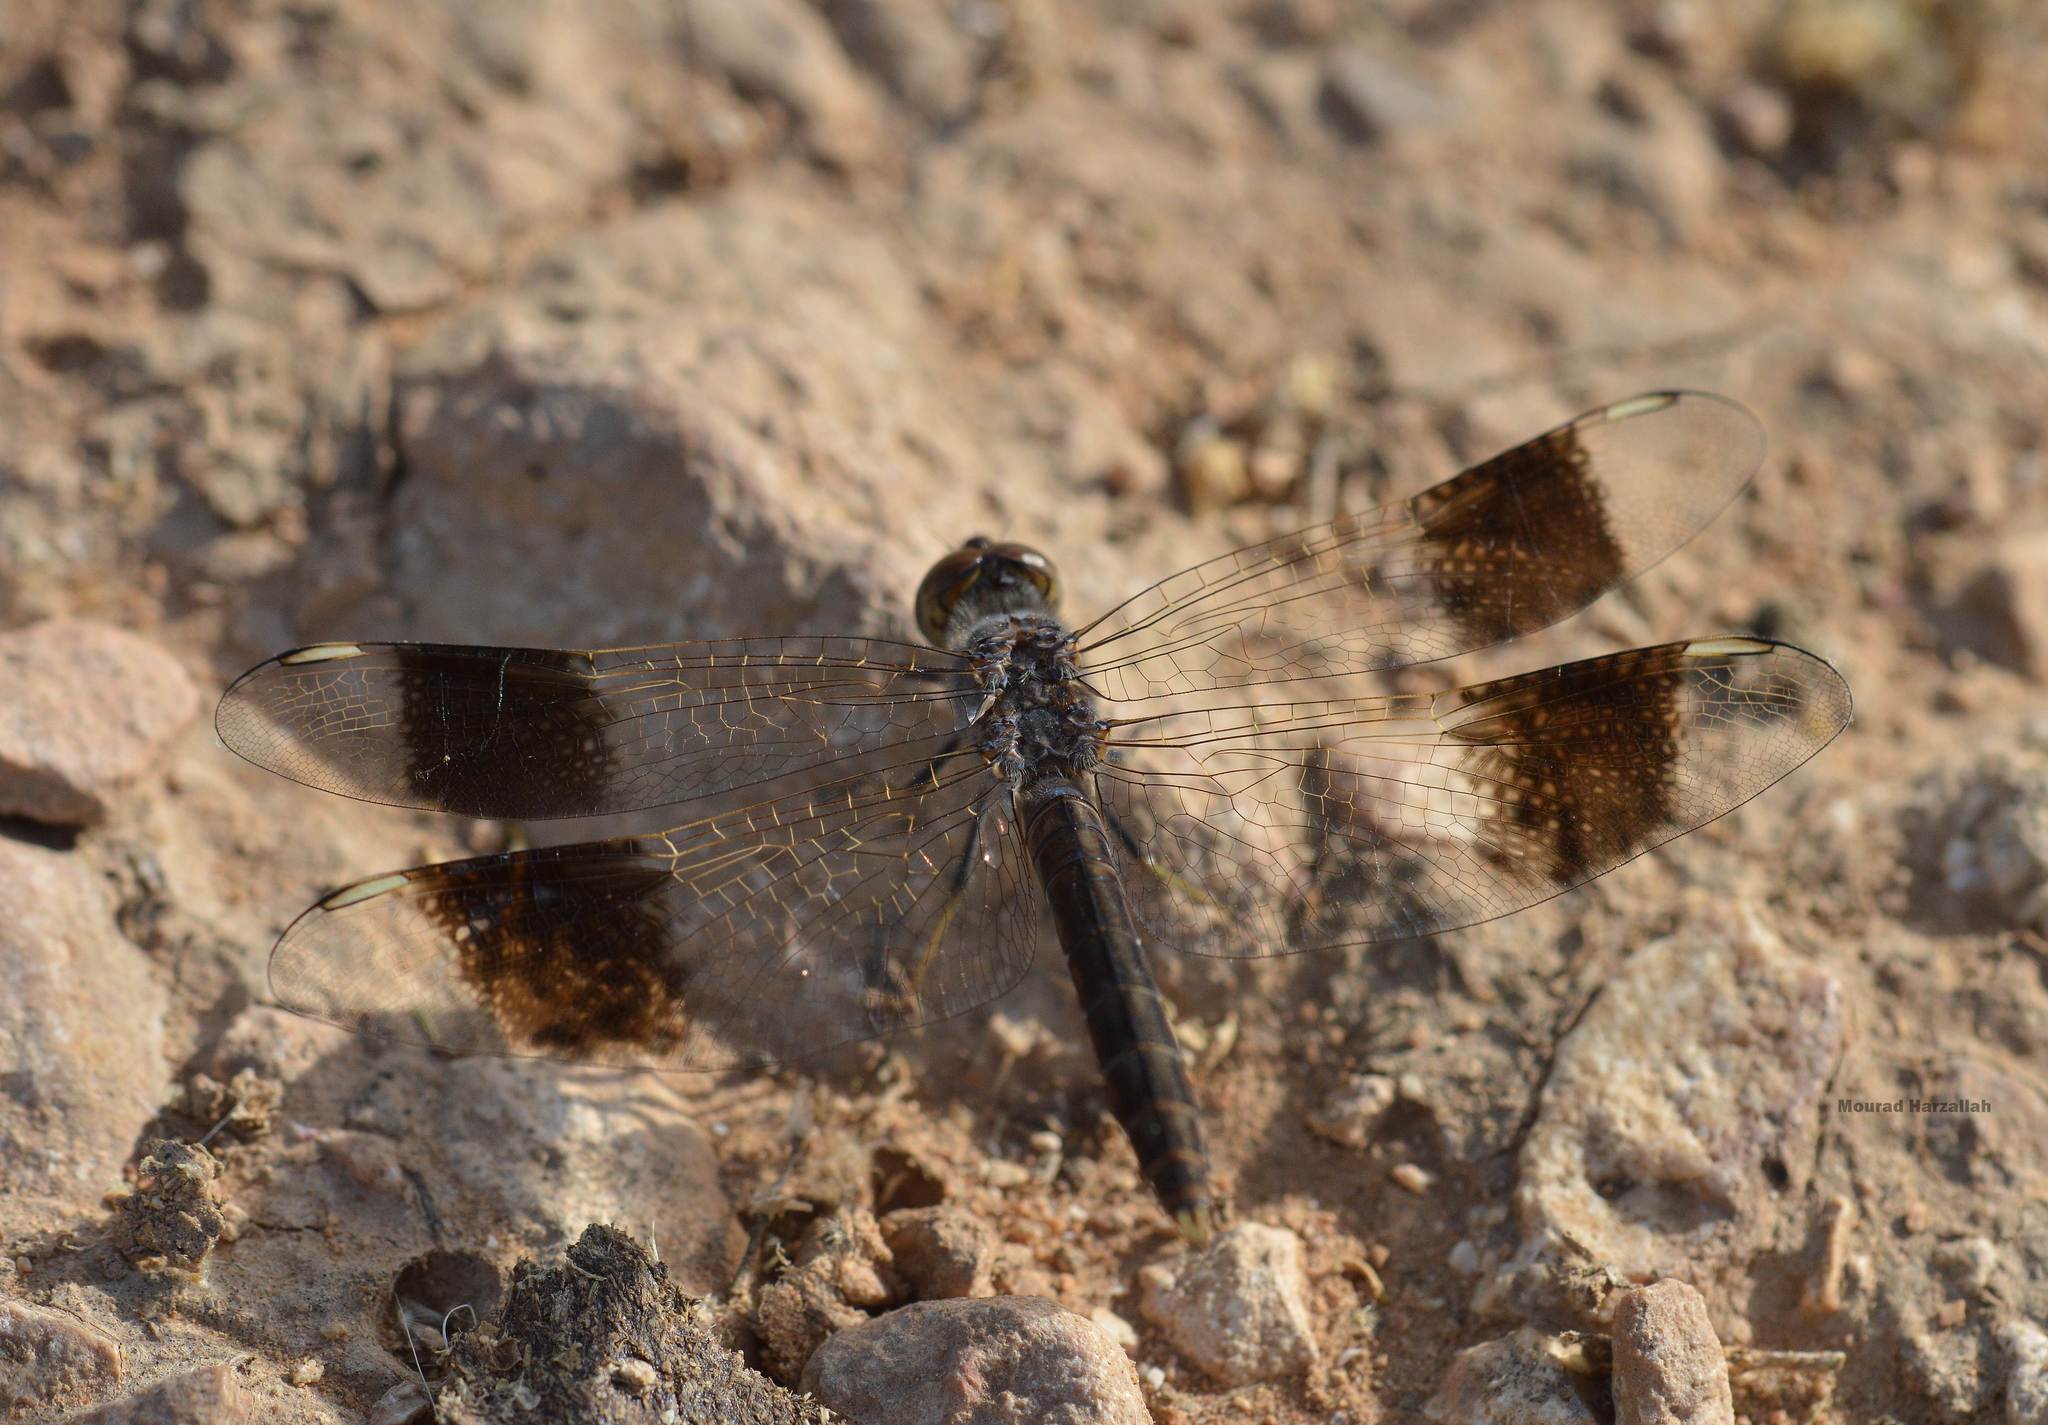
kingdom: Animalia
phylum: Arthropoda
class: Insecta
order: Odonata
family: Libellulidae
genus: Brachythemis
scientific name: Brachythemis impartita
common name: Banded groundling
